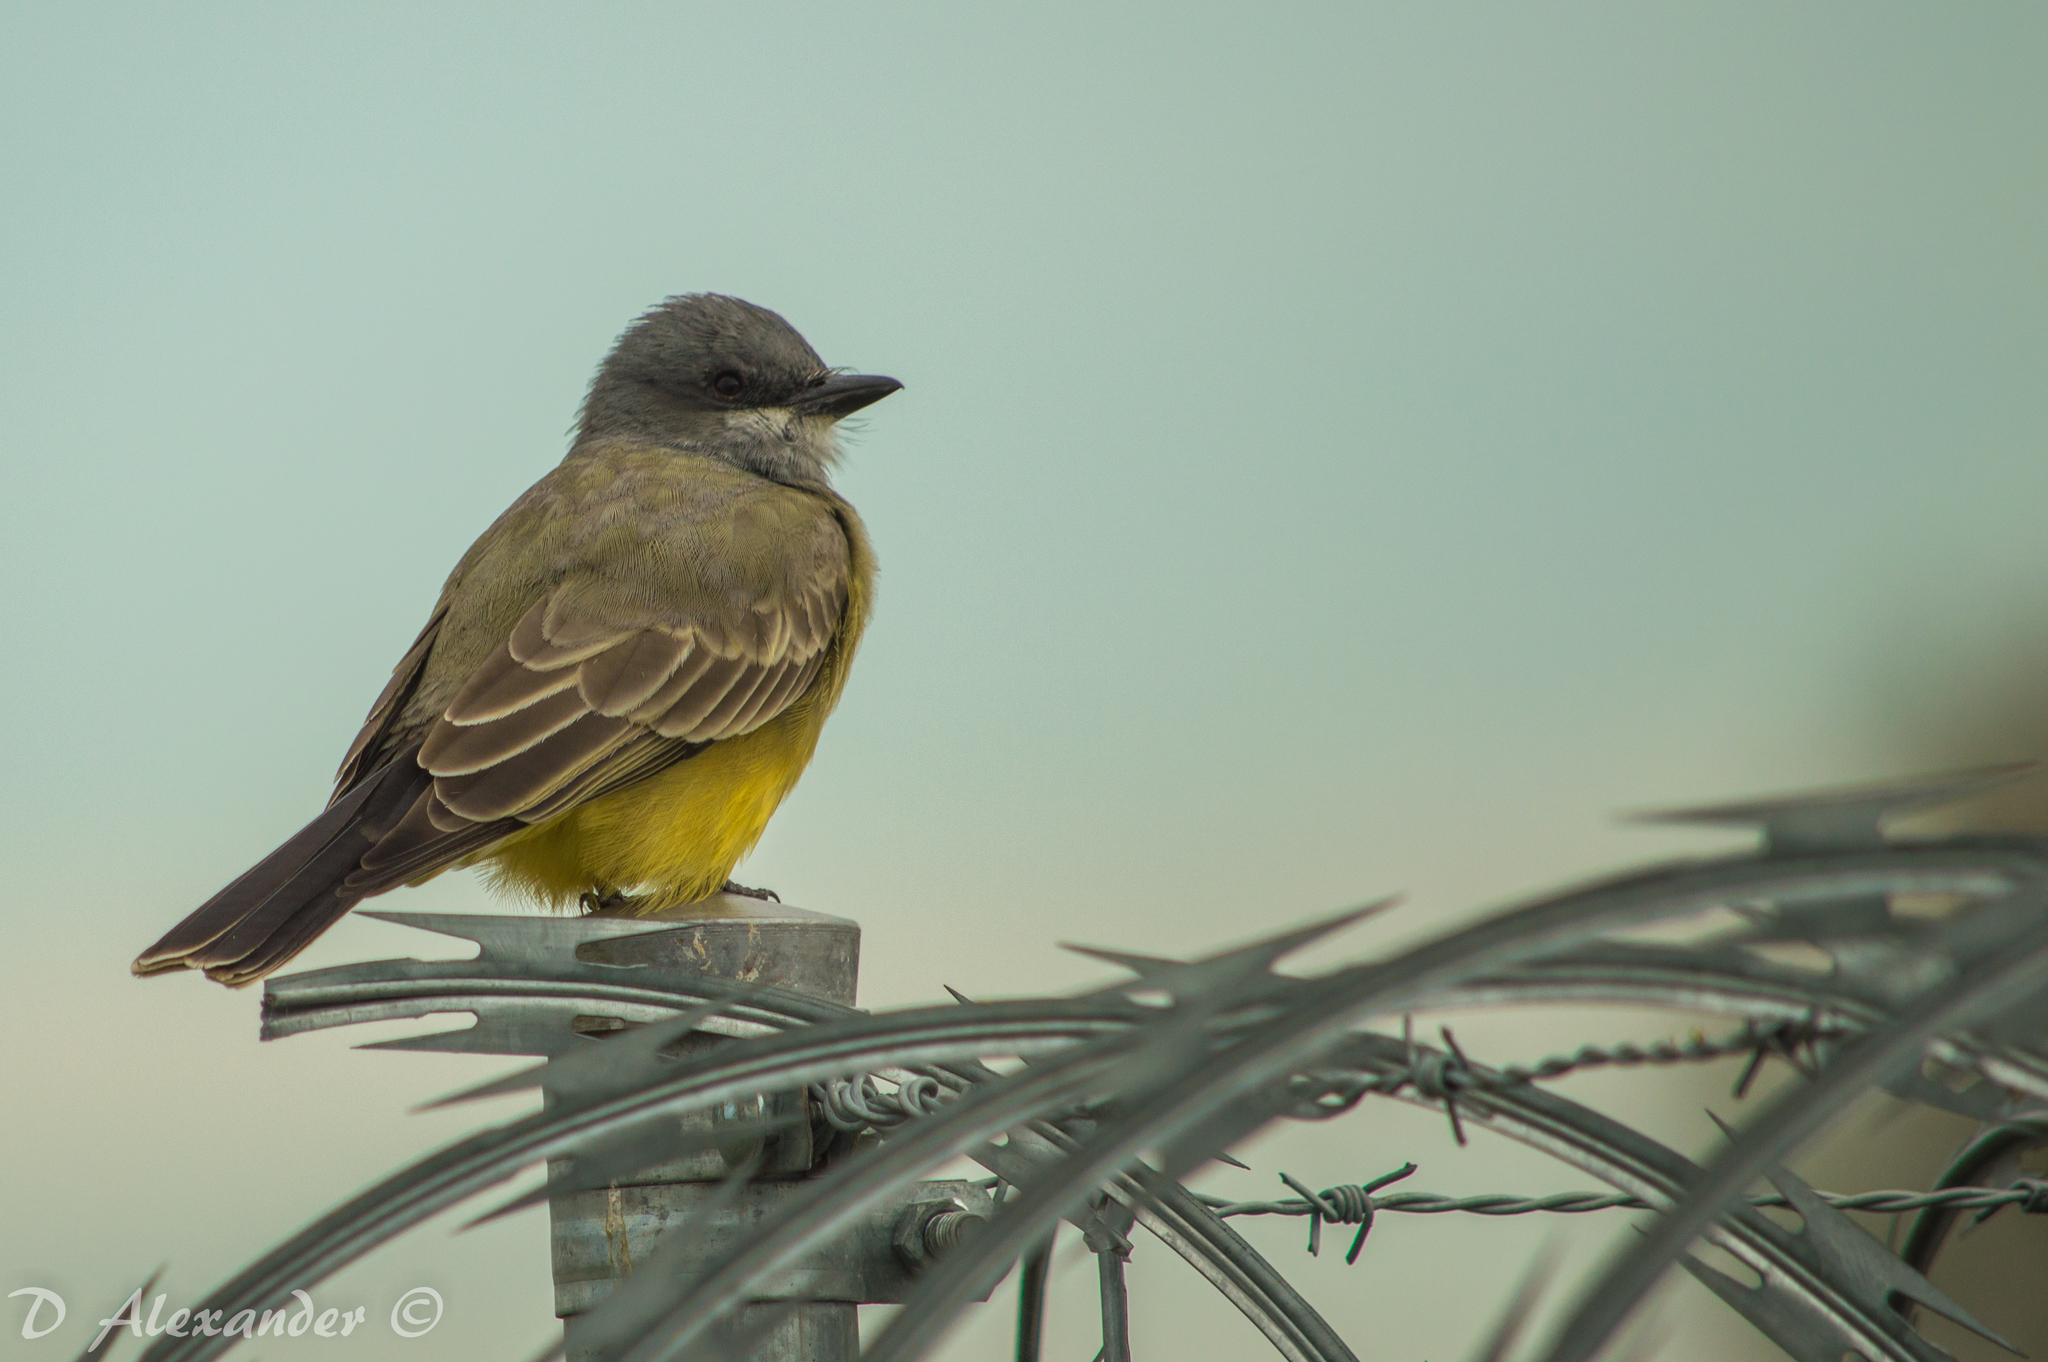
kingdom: Animalia
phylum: Chordata
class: Aves
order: Passeriformes
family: Tyrannidae
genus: Tyrannus
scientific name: Tyrannus vociferans
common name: Cassin's kingbird
